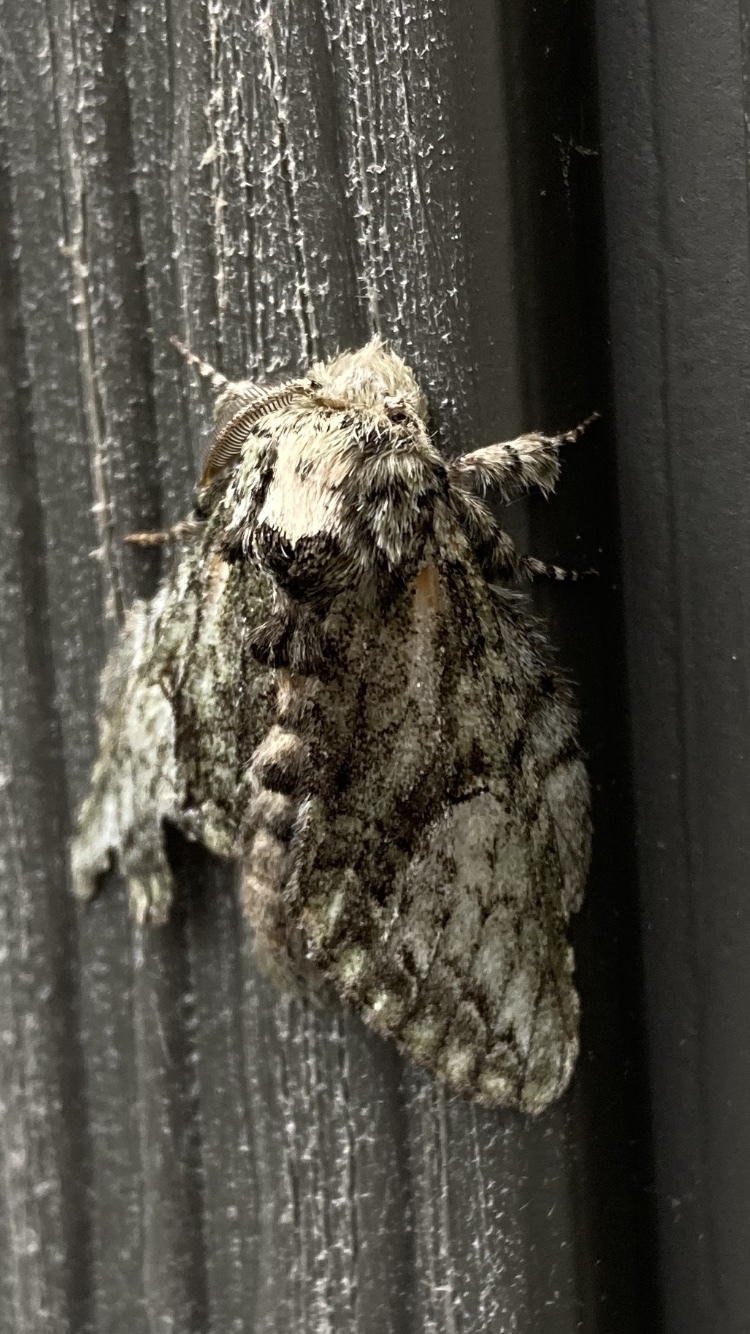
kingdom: Animalia
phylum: Arthropoda
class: Insecta
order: Lepidoptera
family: Notodontidae
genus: Heterocampa
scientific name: Heterocampa
